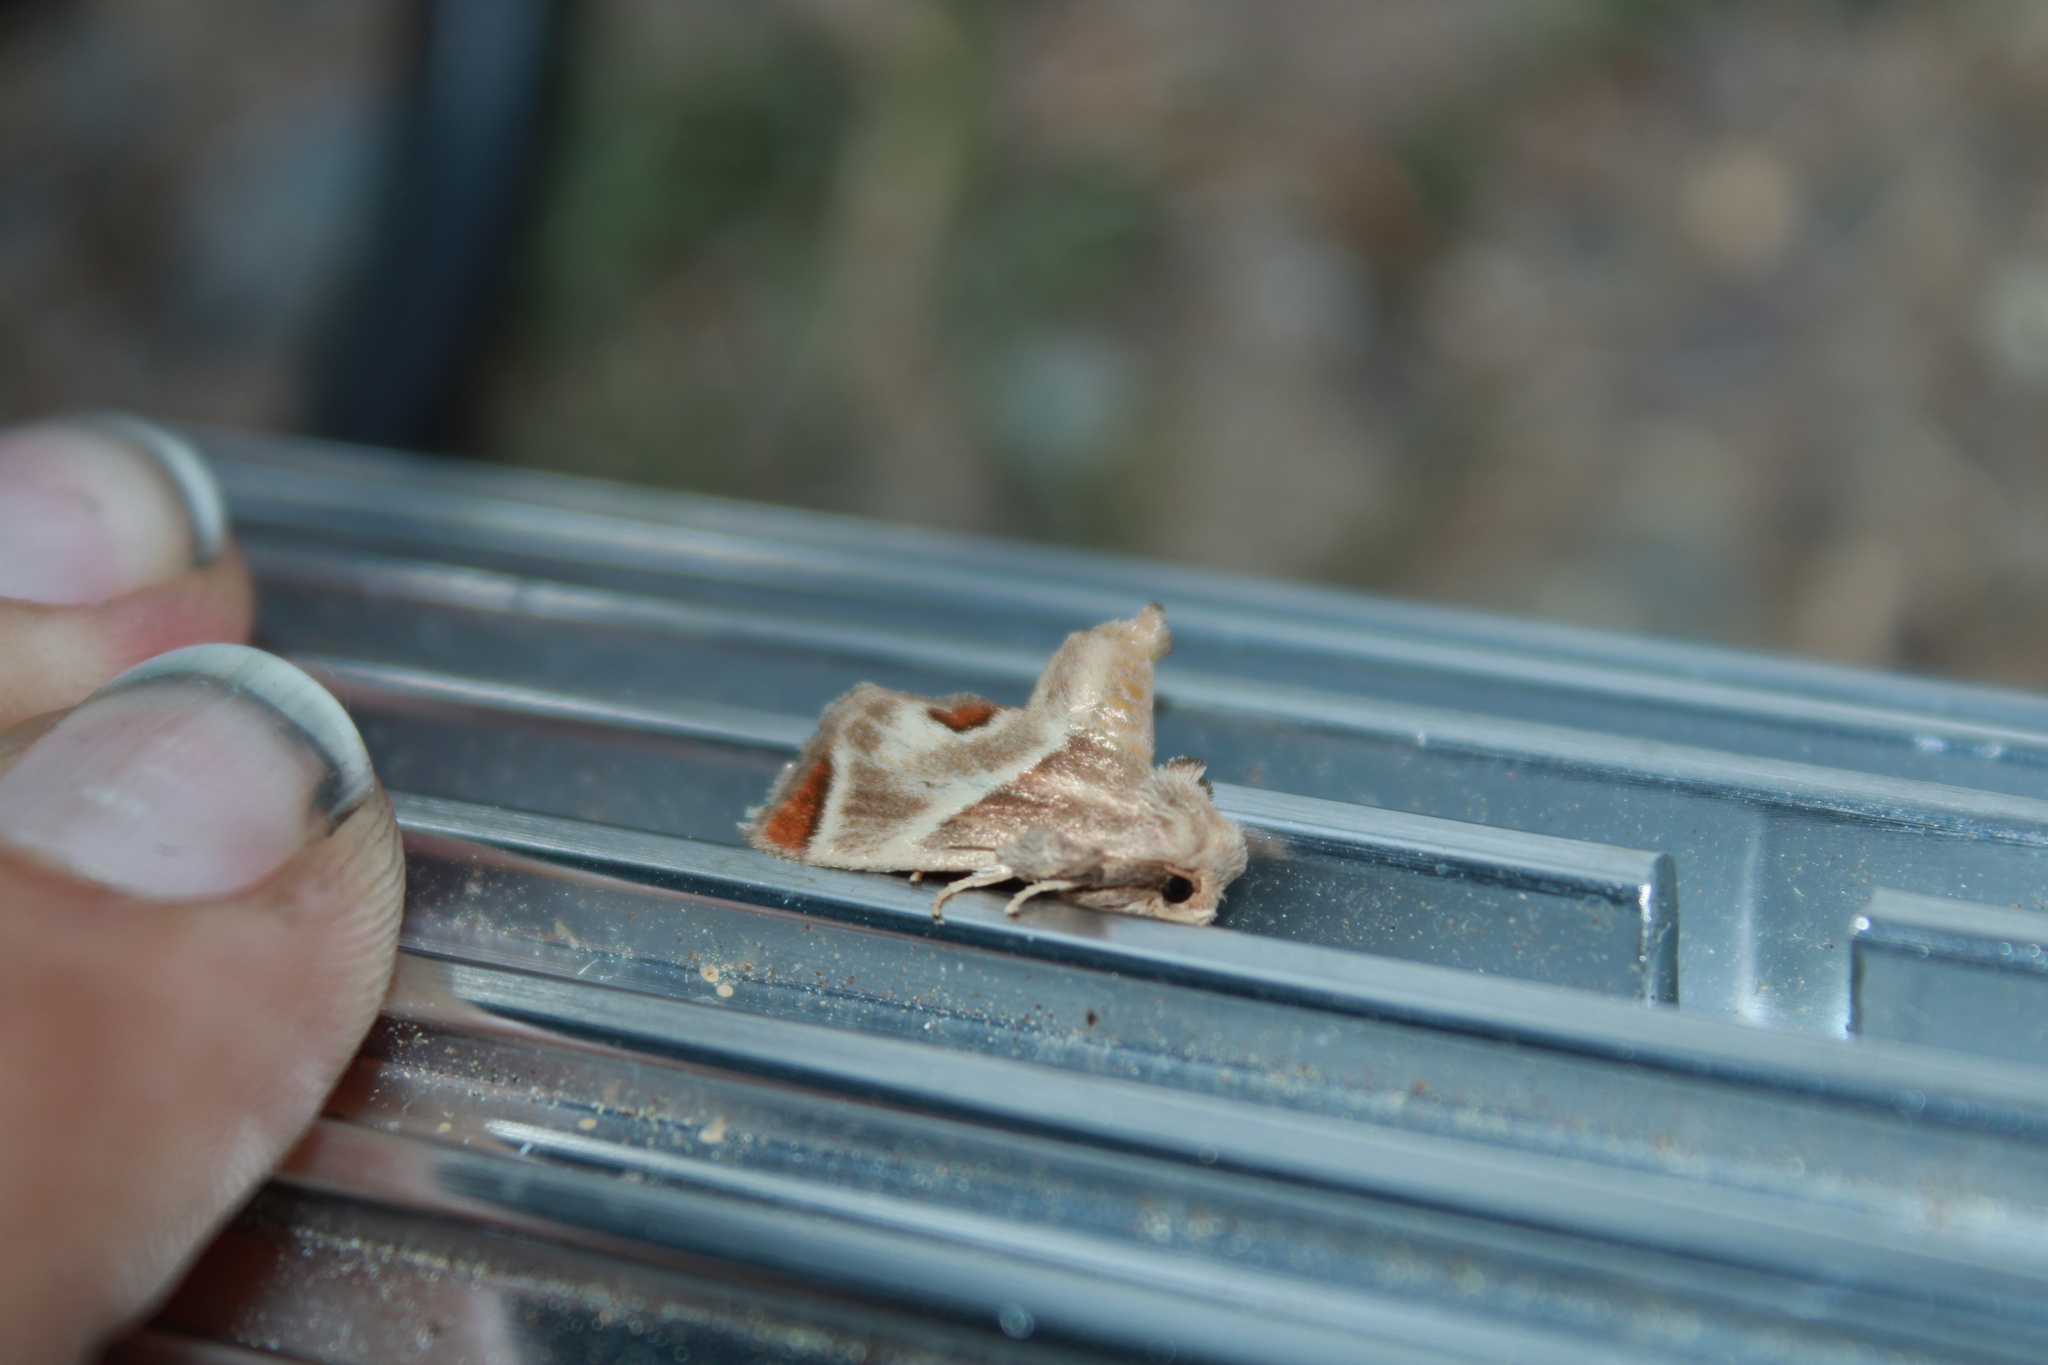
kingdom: Animalia
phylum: Arthropoda
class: Insecta
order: Lepidoptera
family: Limacodidae
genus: Apoda
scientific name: Apoda biguttata
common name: Shagreened slug moth
